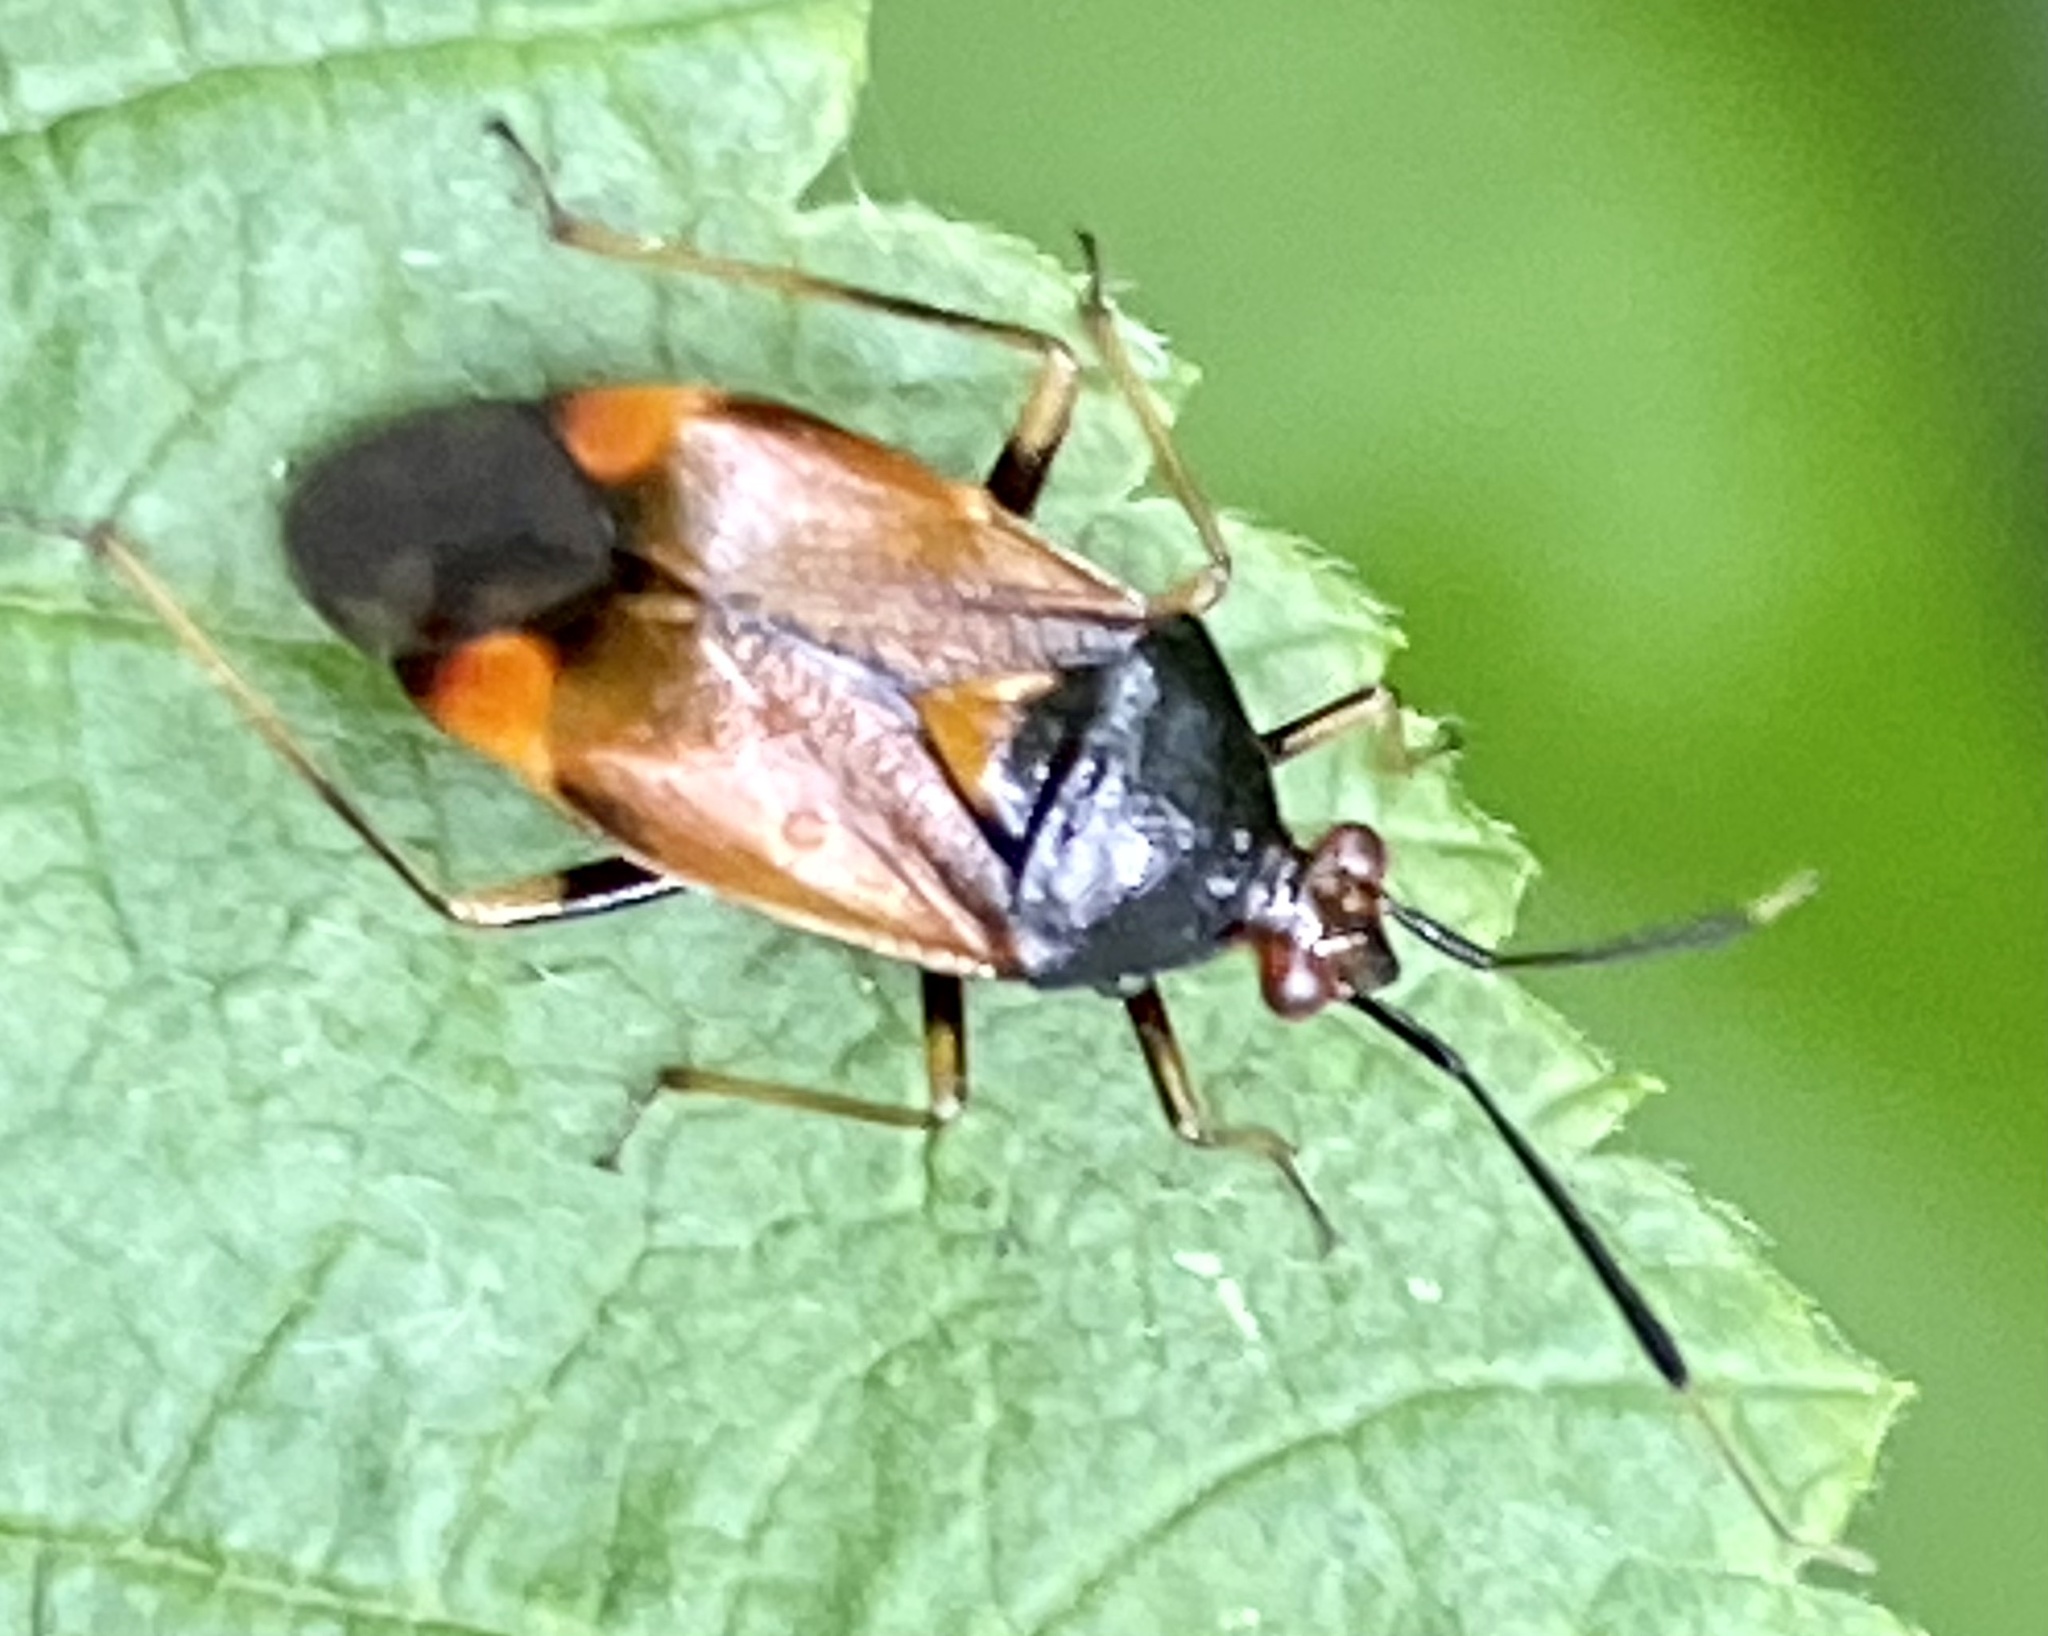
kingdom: Animalia
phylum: Arthropoda
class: Insecta
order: Hemiptera
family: Miridae
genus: Deraeocoris
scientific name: Deraeocoris ruber
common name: Plant bug
